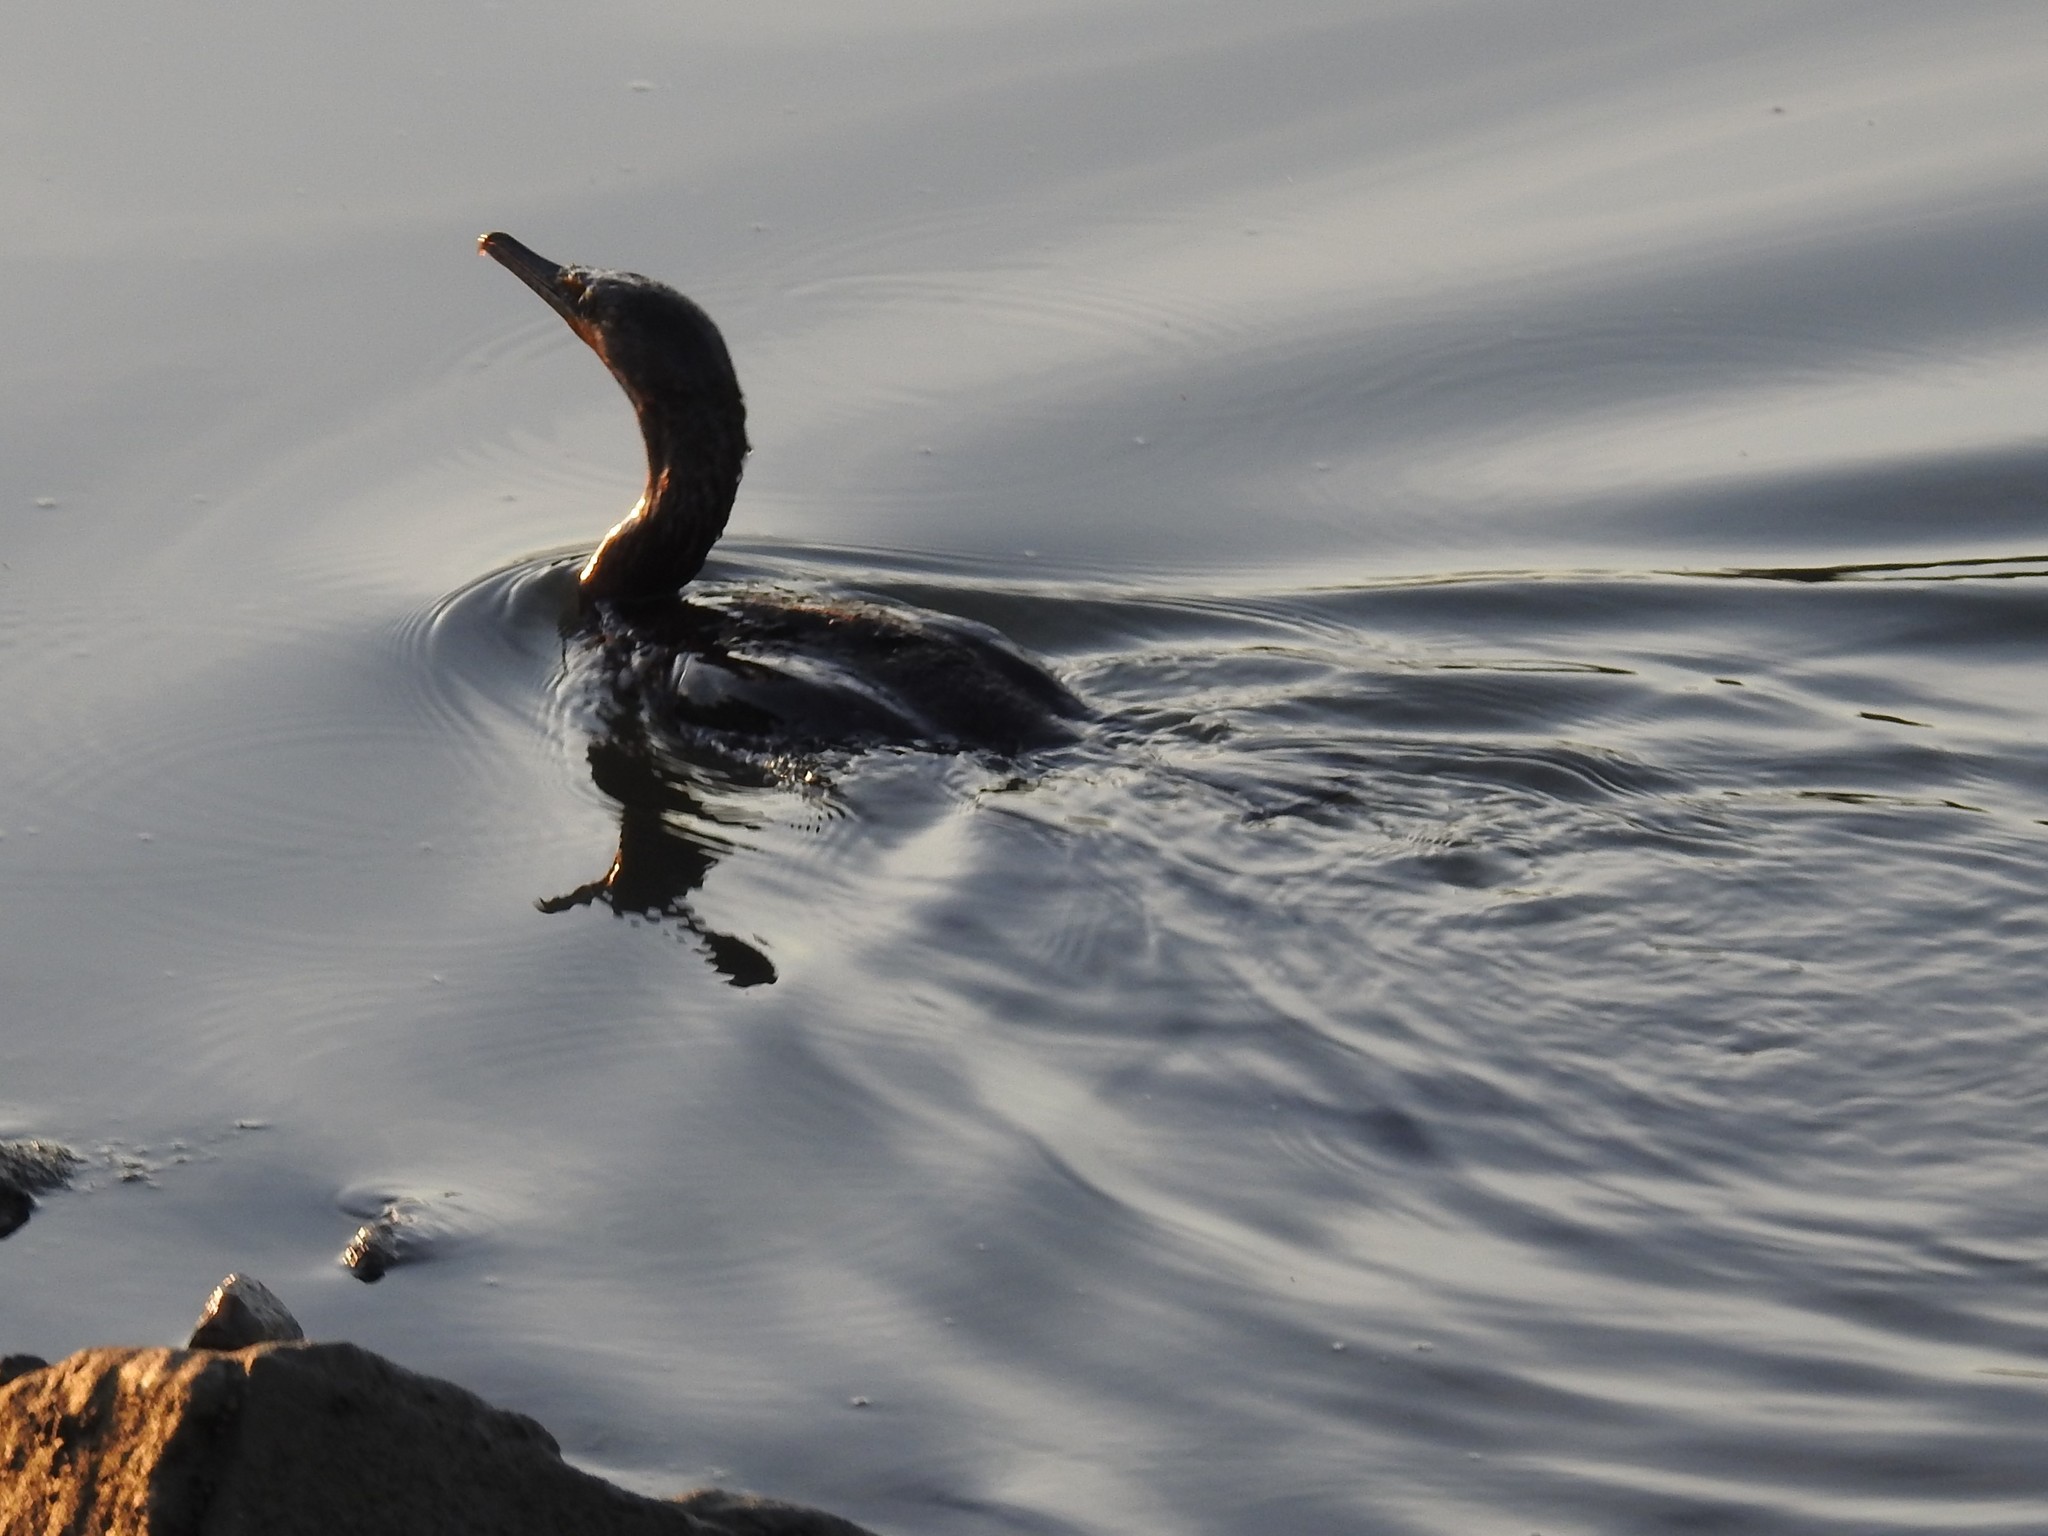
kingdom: Animalia
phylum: Chordata
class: Aves
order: Suliformes
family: Phalacrocoracidae
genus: Phalacrocorax
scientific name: Phalacrocorax auritus
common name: Double-crested cormorant
